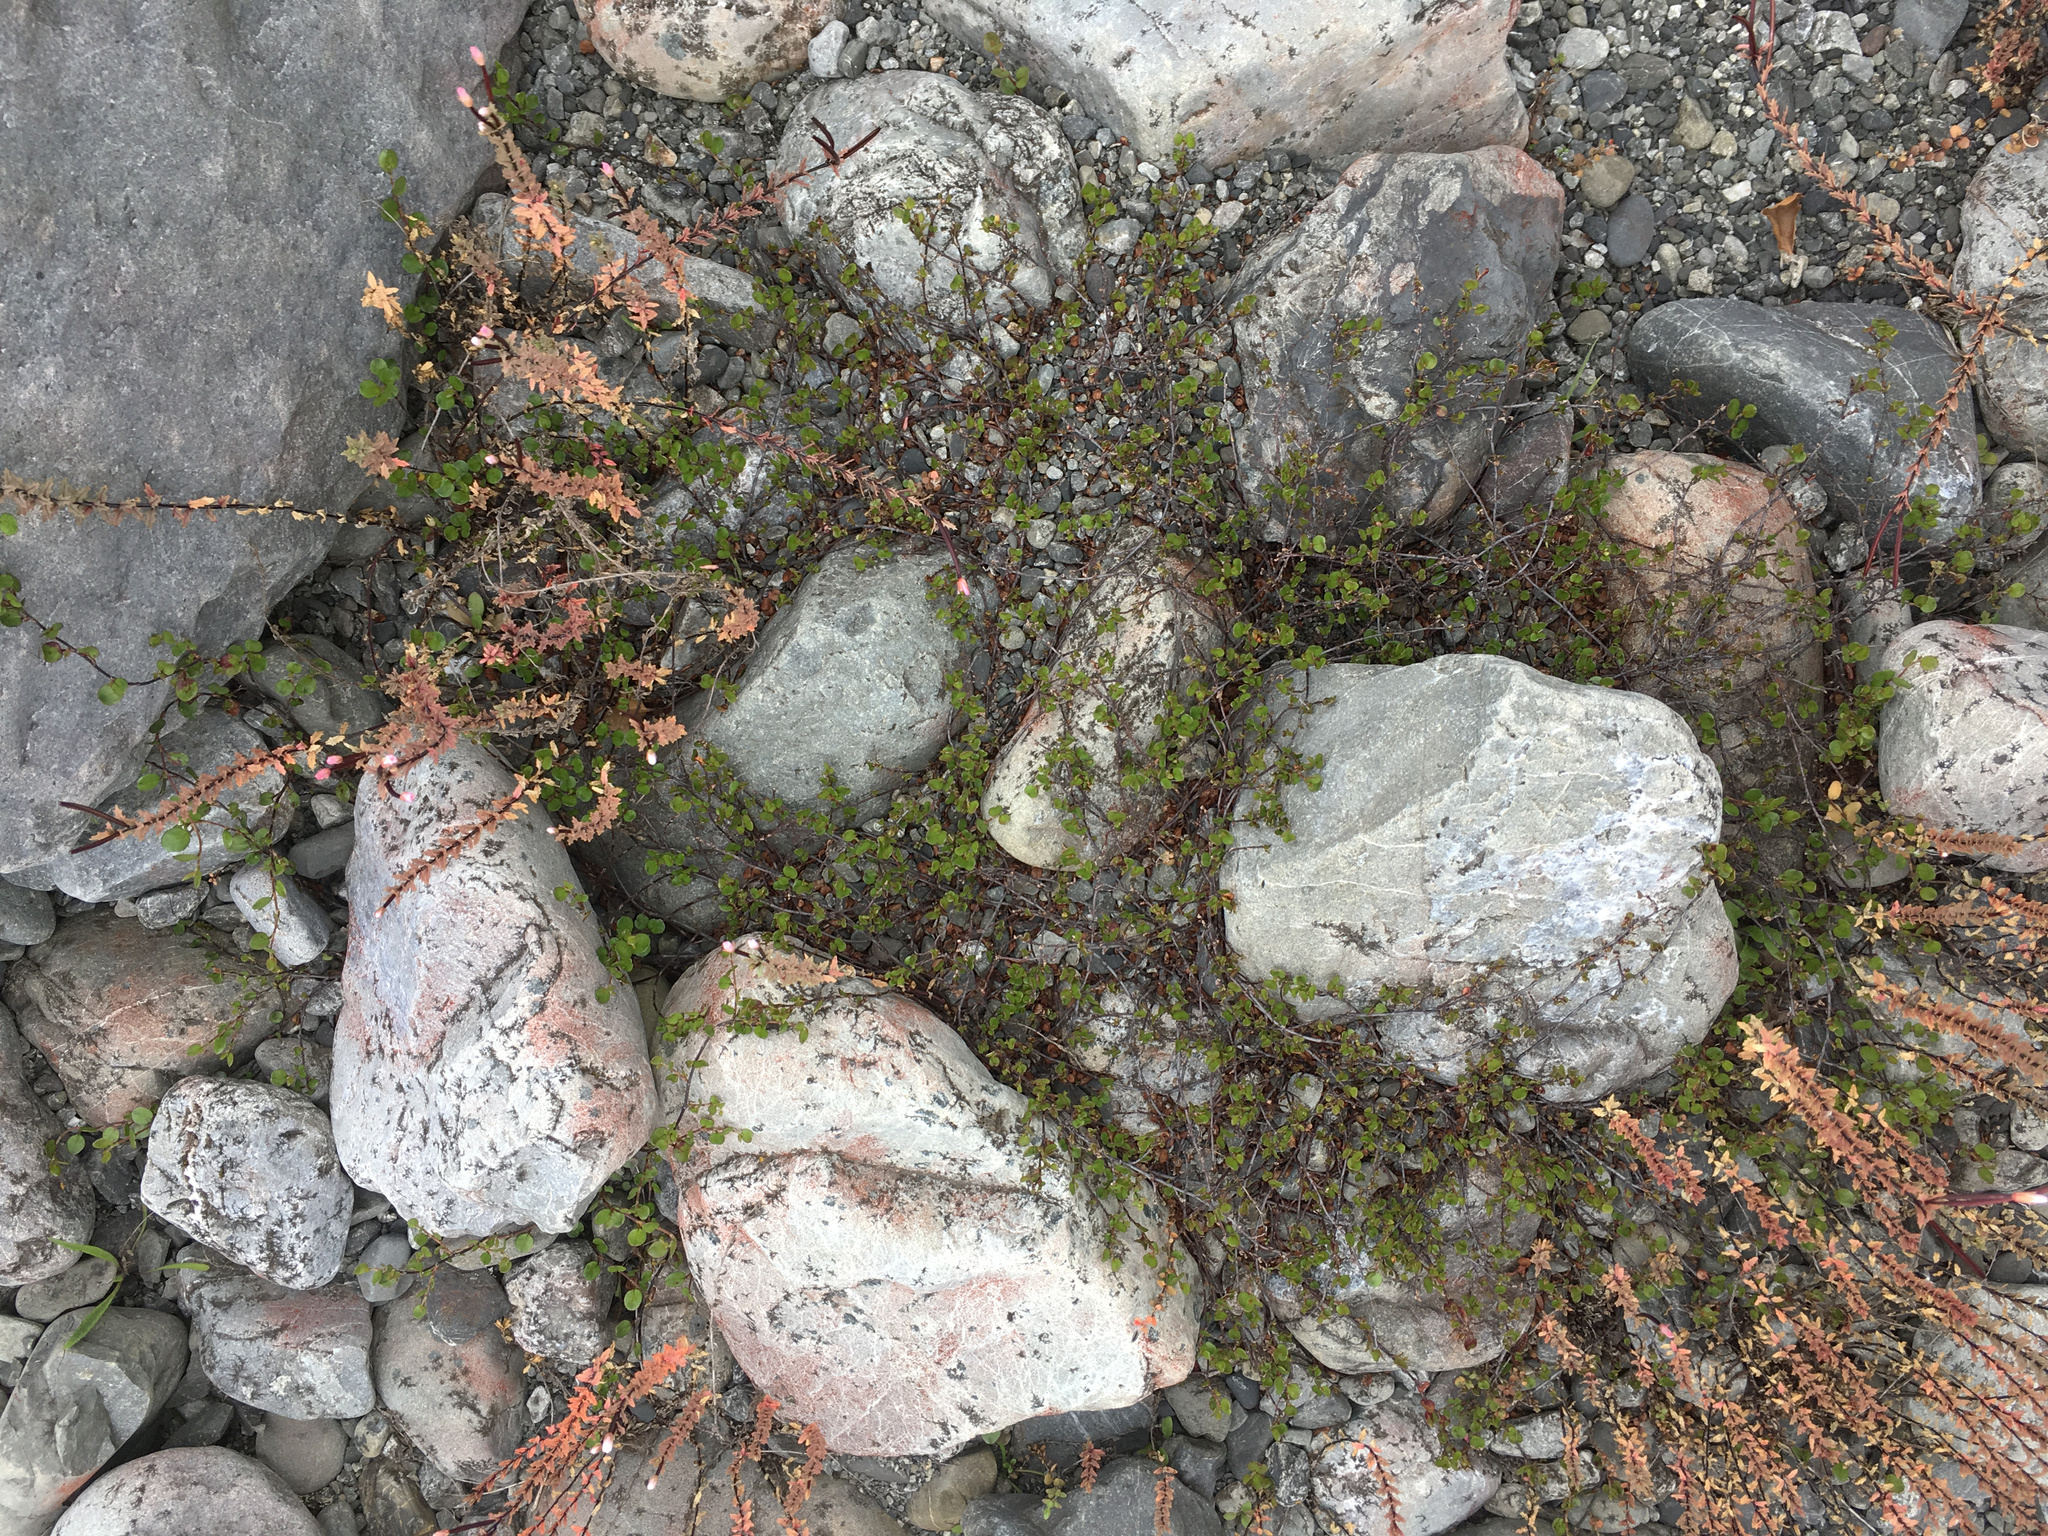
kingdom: Plantae
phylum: Tracheophyta
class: Magnoliopsida
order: Caryophyllales
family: Polygonaceae
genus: Muehlenbeckia
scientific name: Muehlenbeckia axillaris
